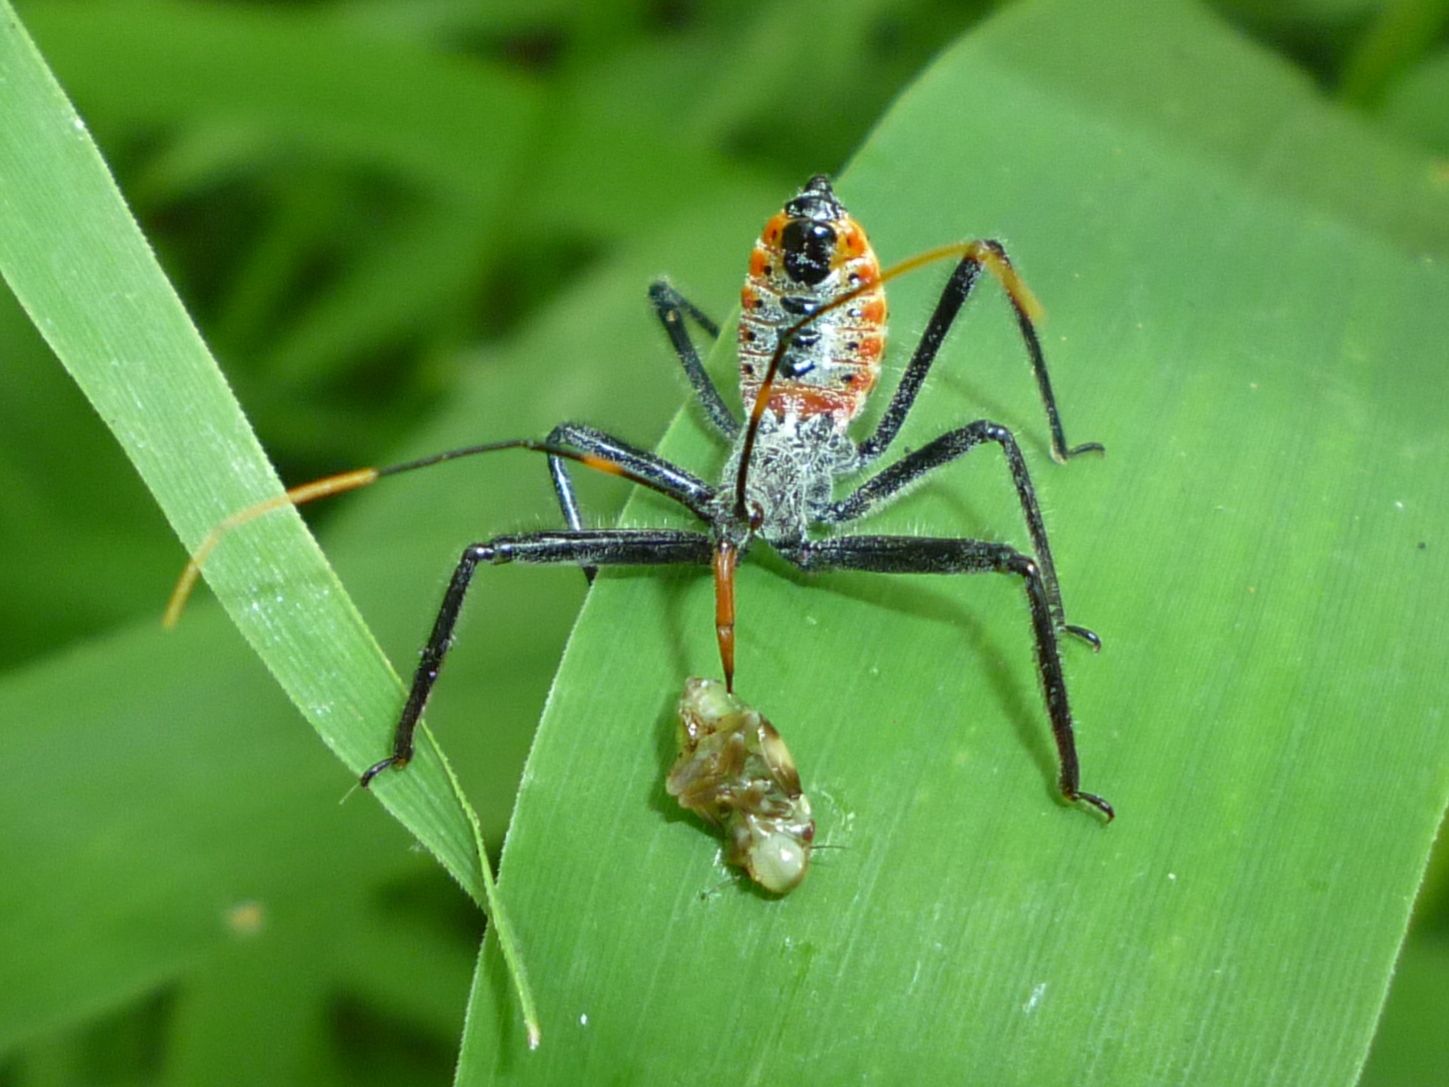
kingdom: Animalia
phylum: Arthropoda
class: Insecta
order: Hemiptera
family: Reduviidae
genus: Arilus
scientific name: Arilus cristatus
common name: North american wheel bug
